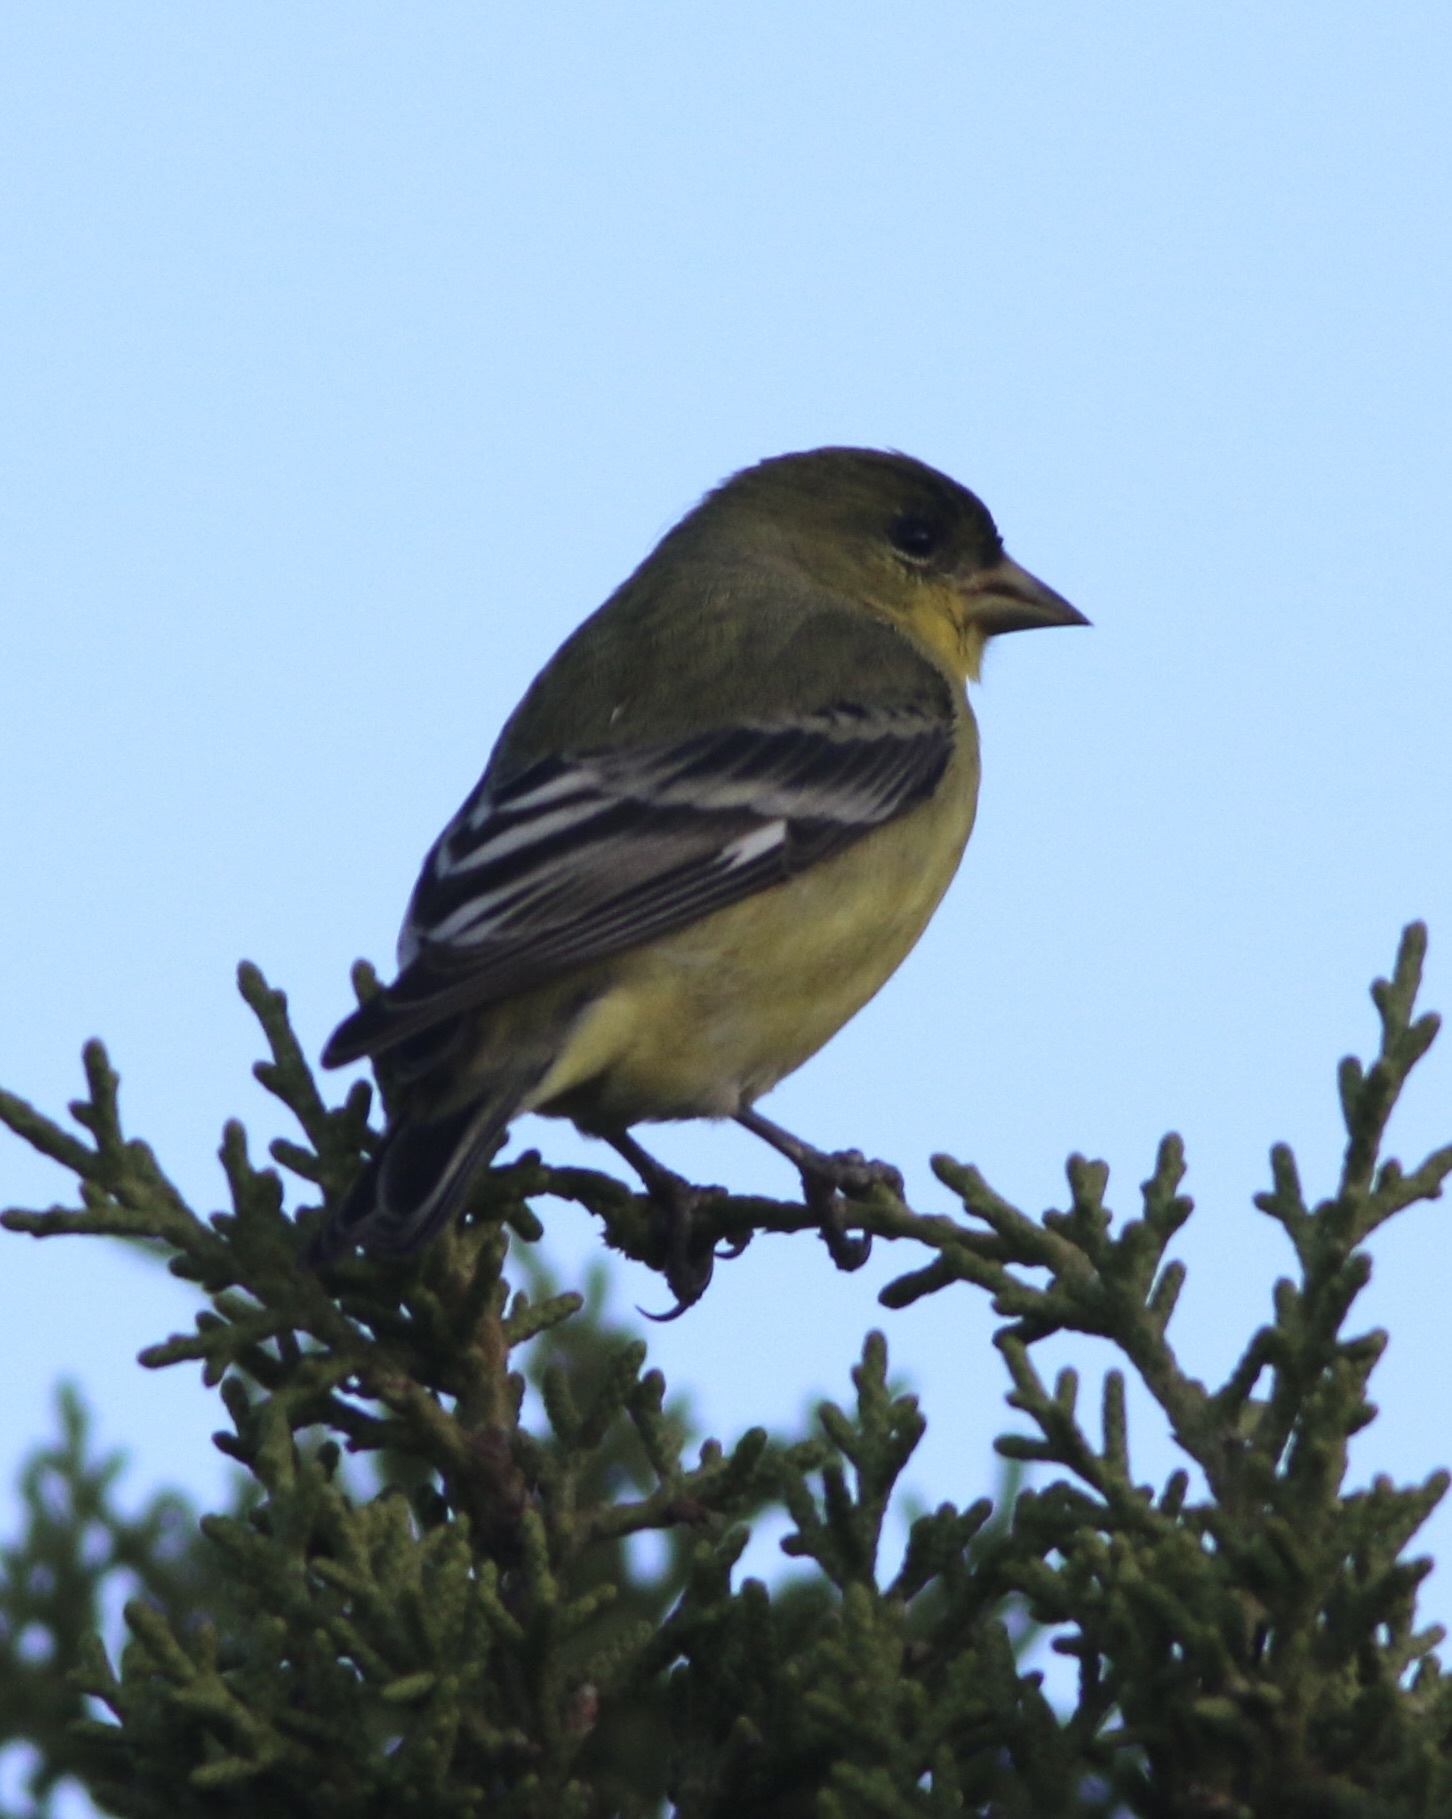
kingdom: Animalia
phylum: Chordata
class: Aves
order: Passeriformes
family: Fringillidae
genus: Spinus
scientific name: Spinus psaltria
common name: Lesser goldfinch
